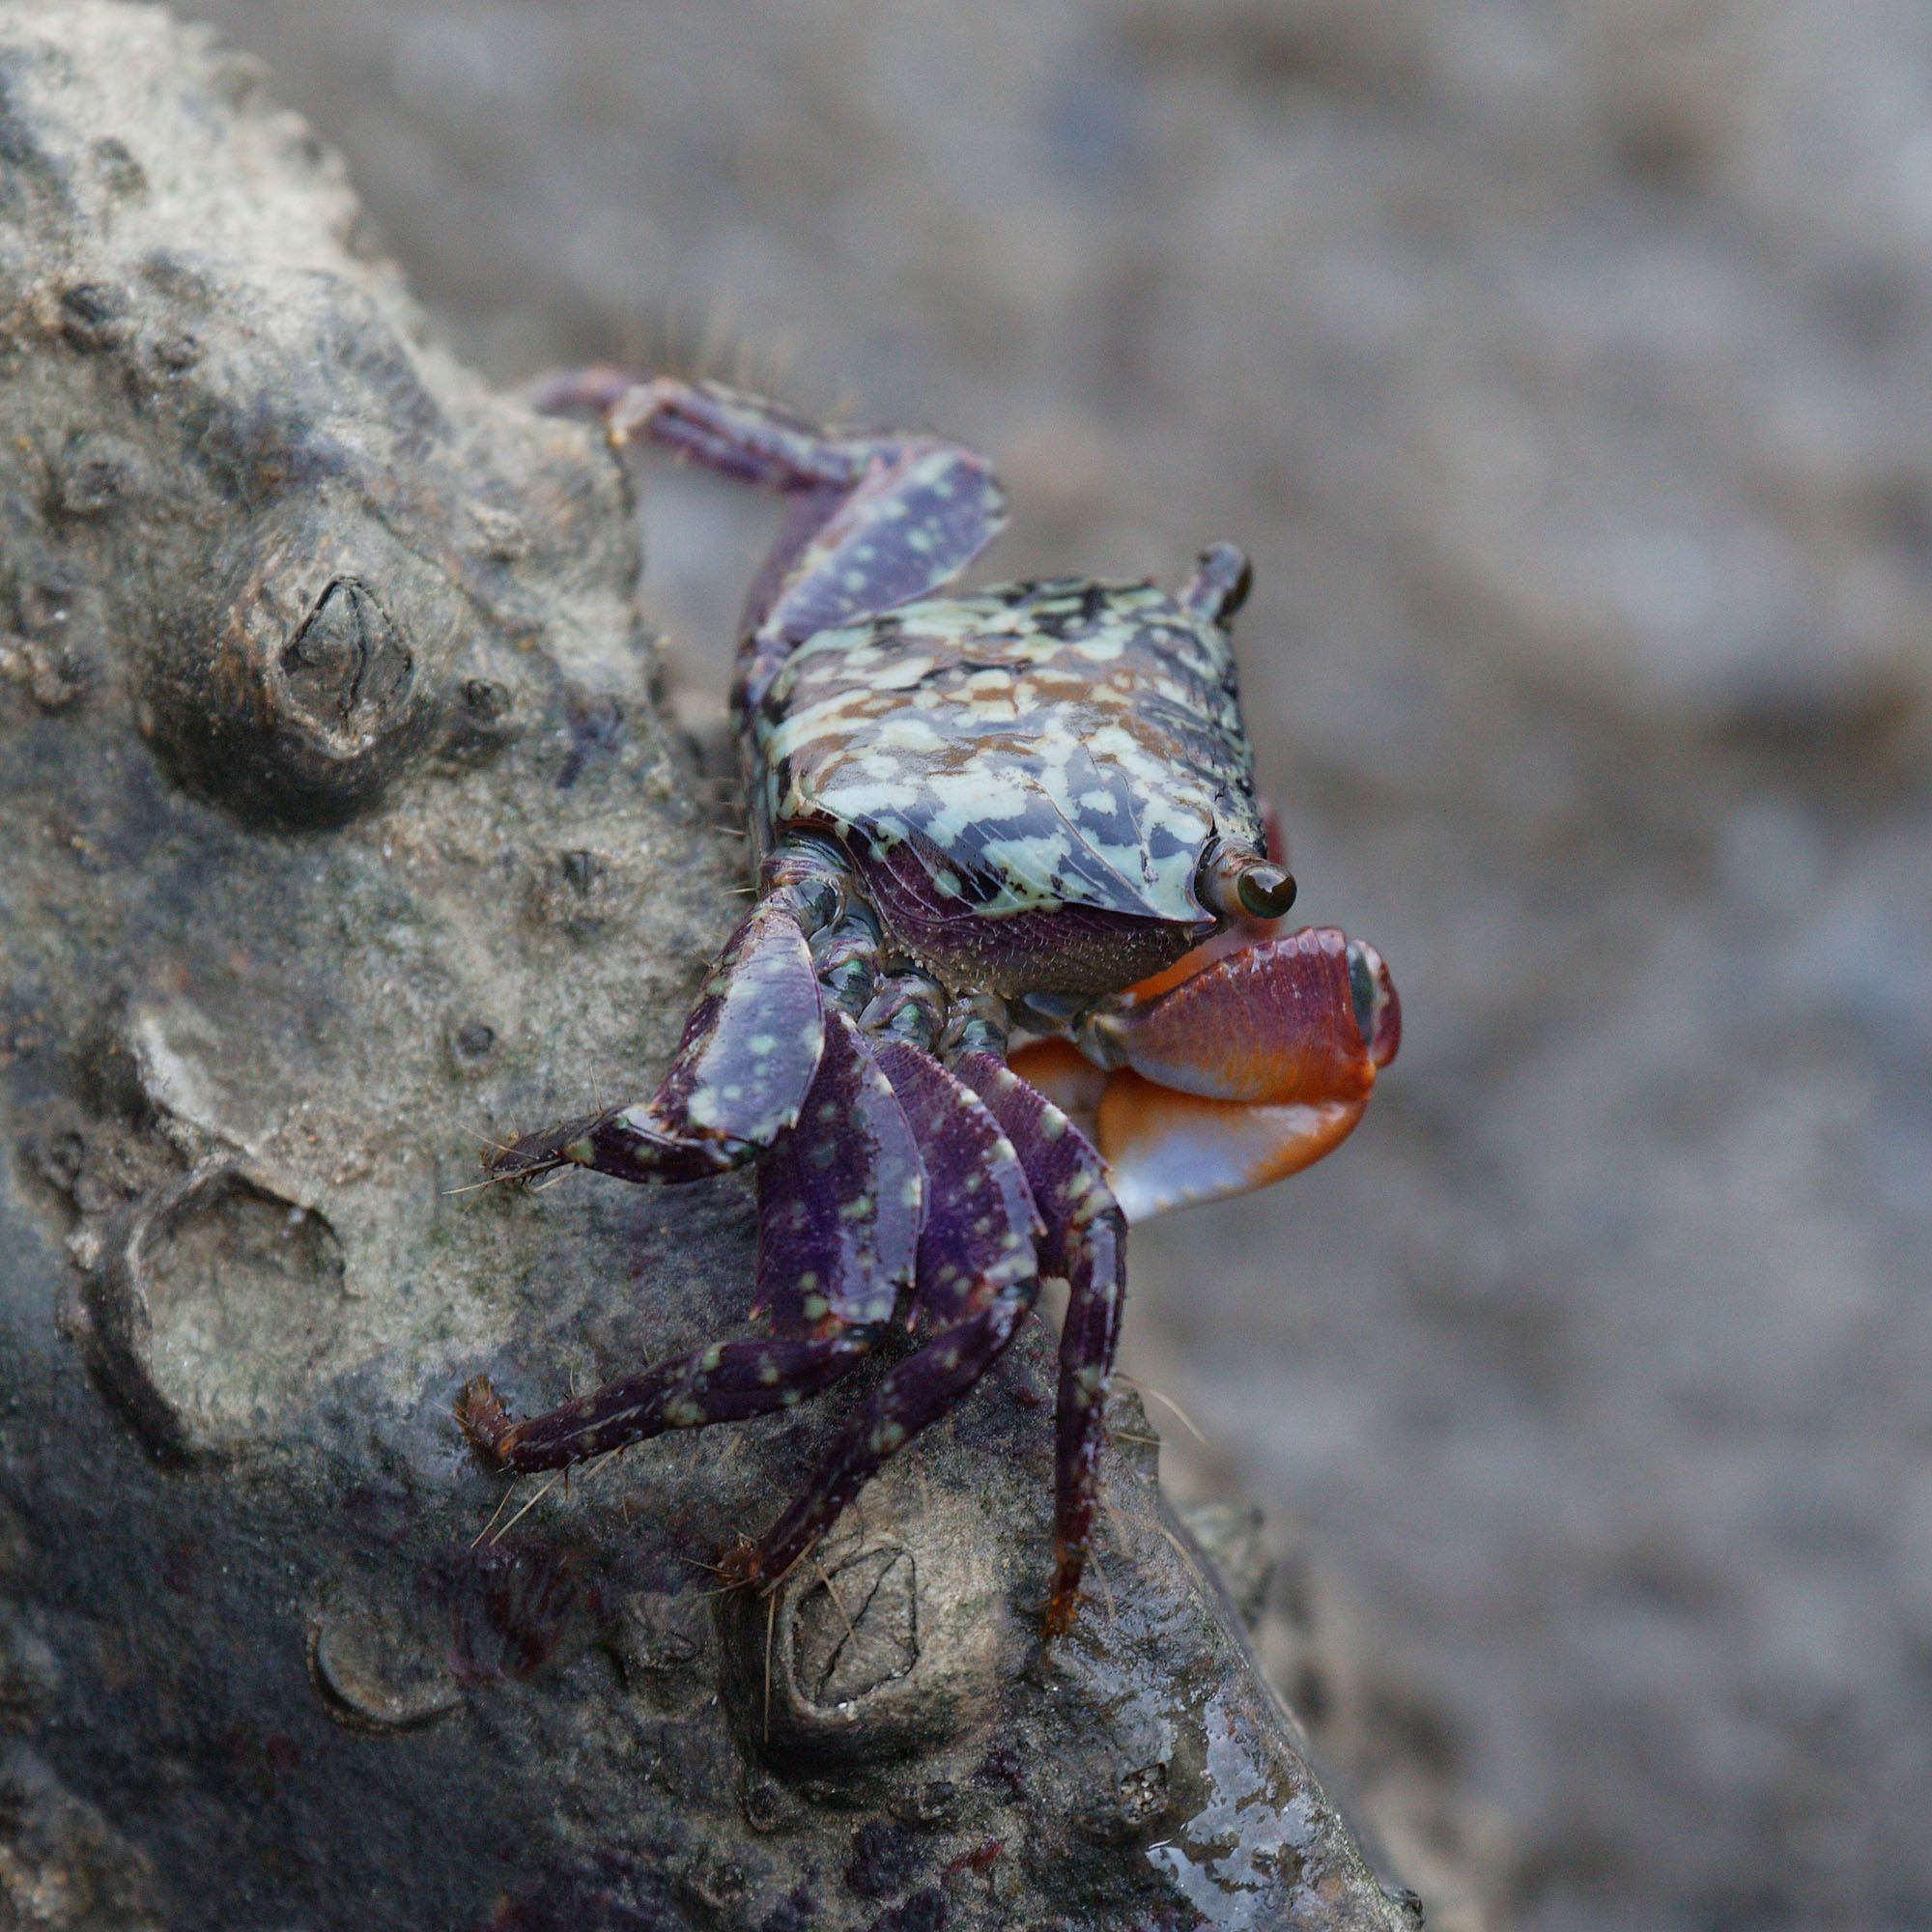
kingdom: Animalia
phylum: Arthropoda
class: Malacostraca
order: Decapoda
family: Grapsidae
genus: Metopograpsus
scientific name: Metopograpsus frontalis
